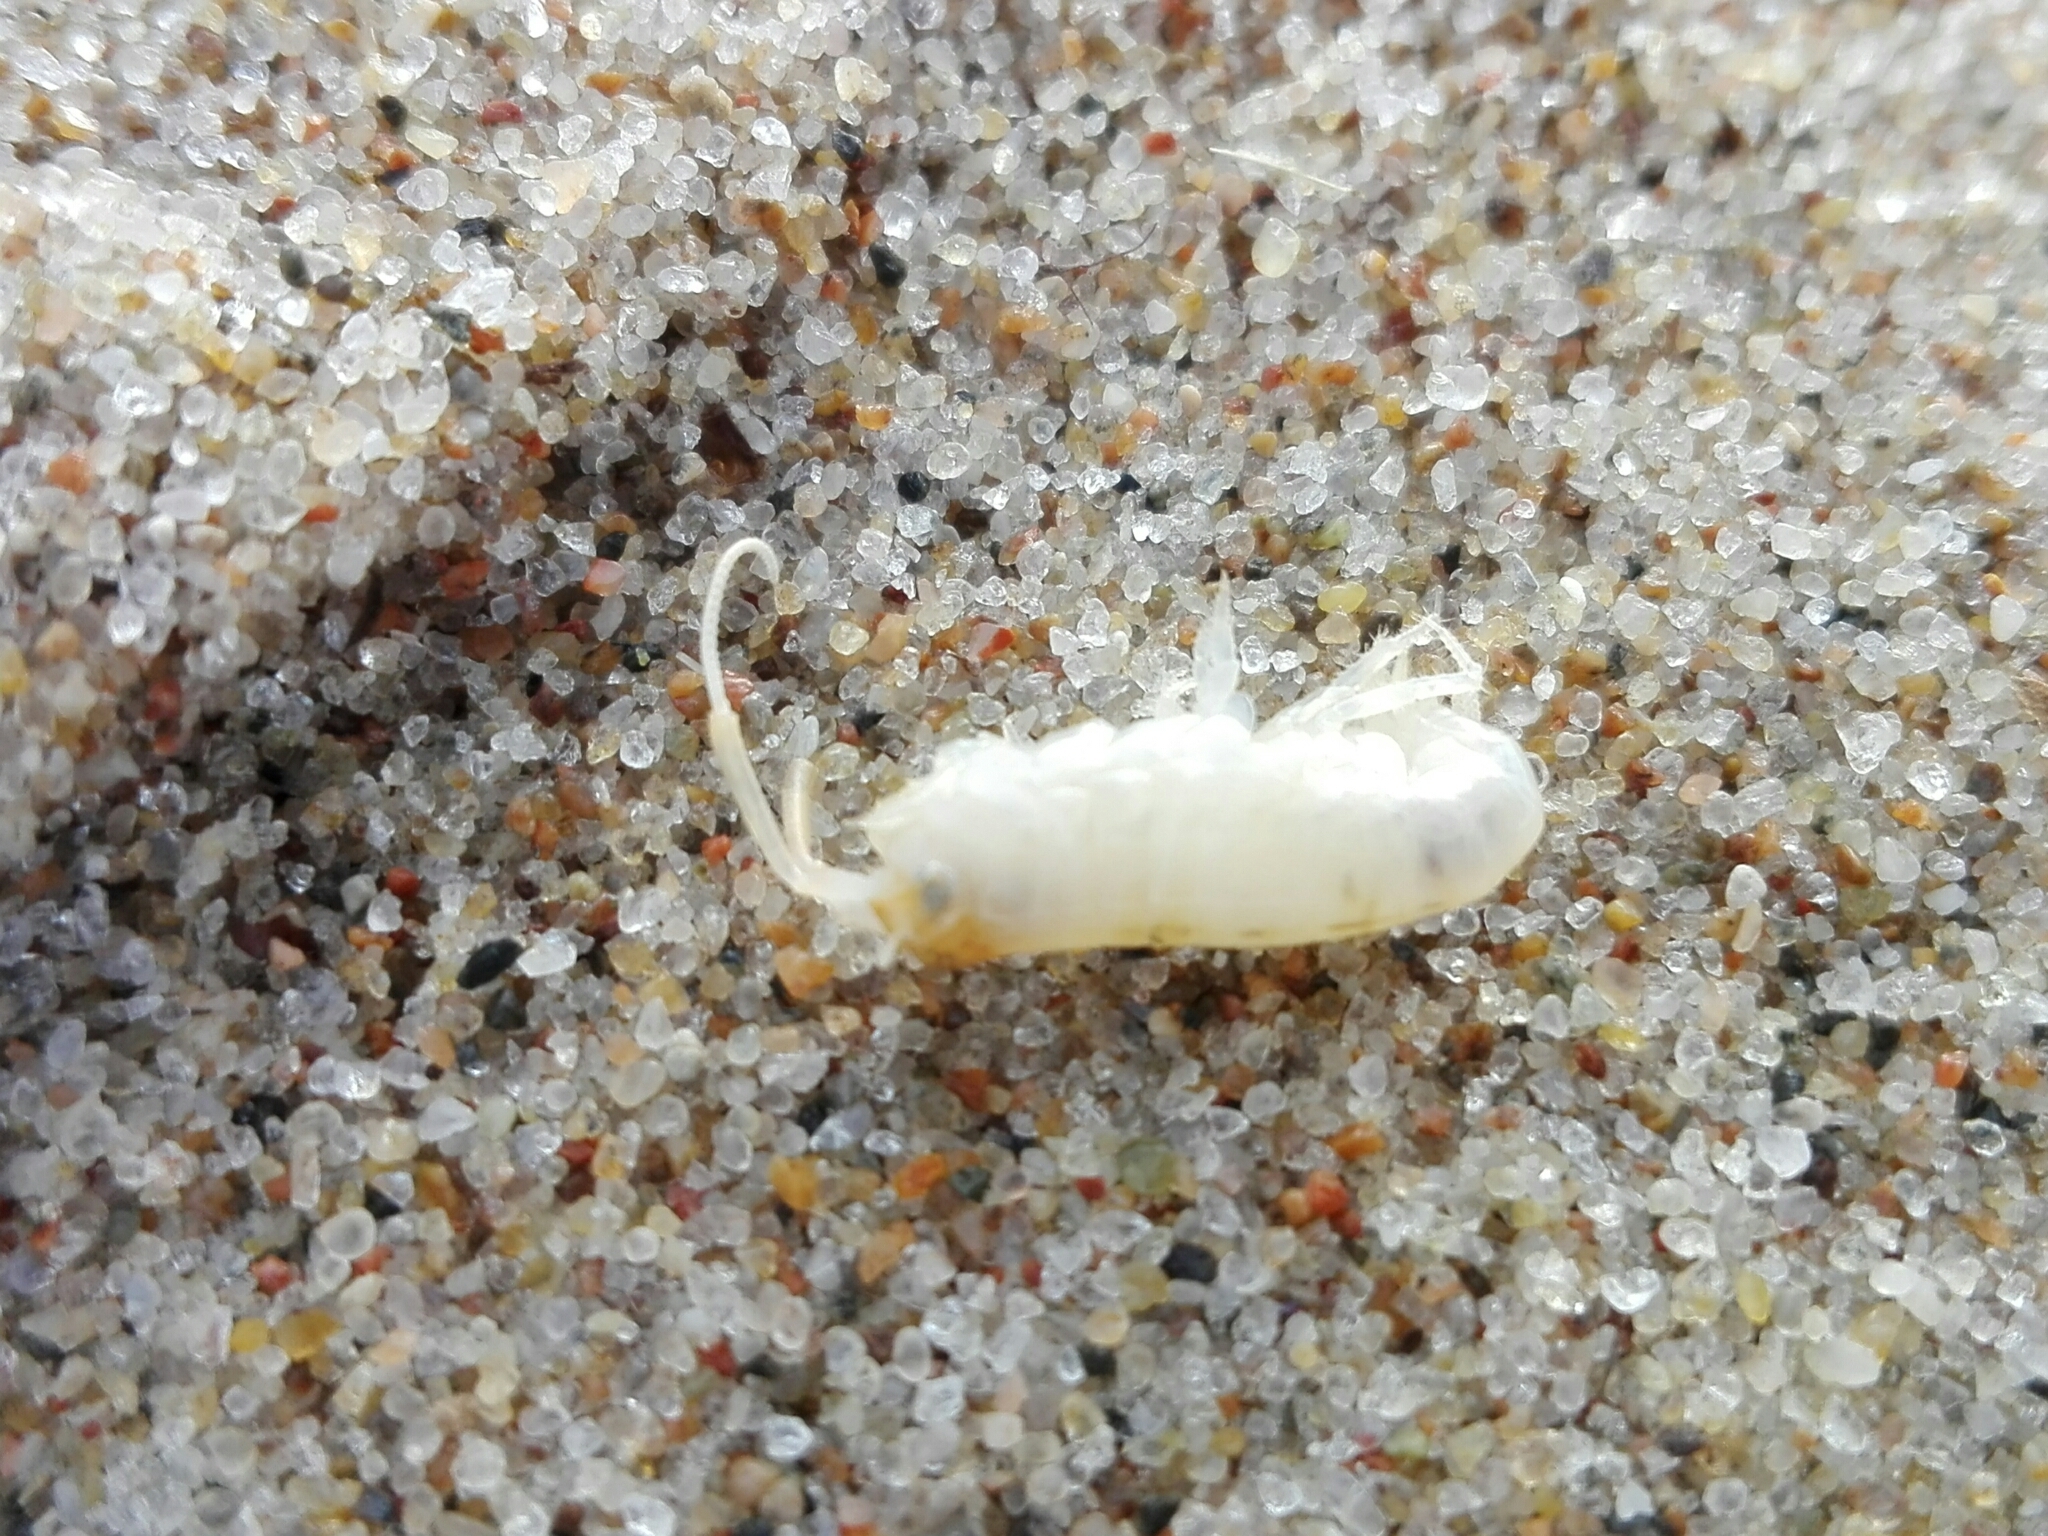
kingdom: Animalia
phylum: Arthropoda
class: Malacostraca
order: Amphipoda
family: Talitridae
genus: Talitrus
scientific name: Talitrus saltator
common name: Sand hopper
